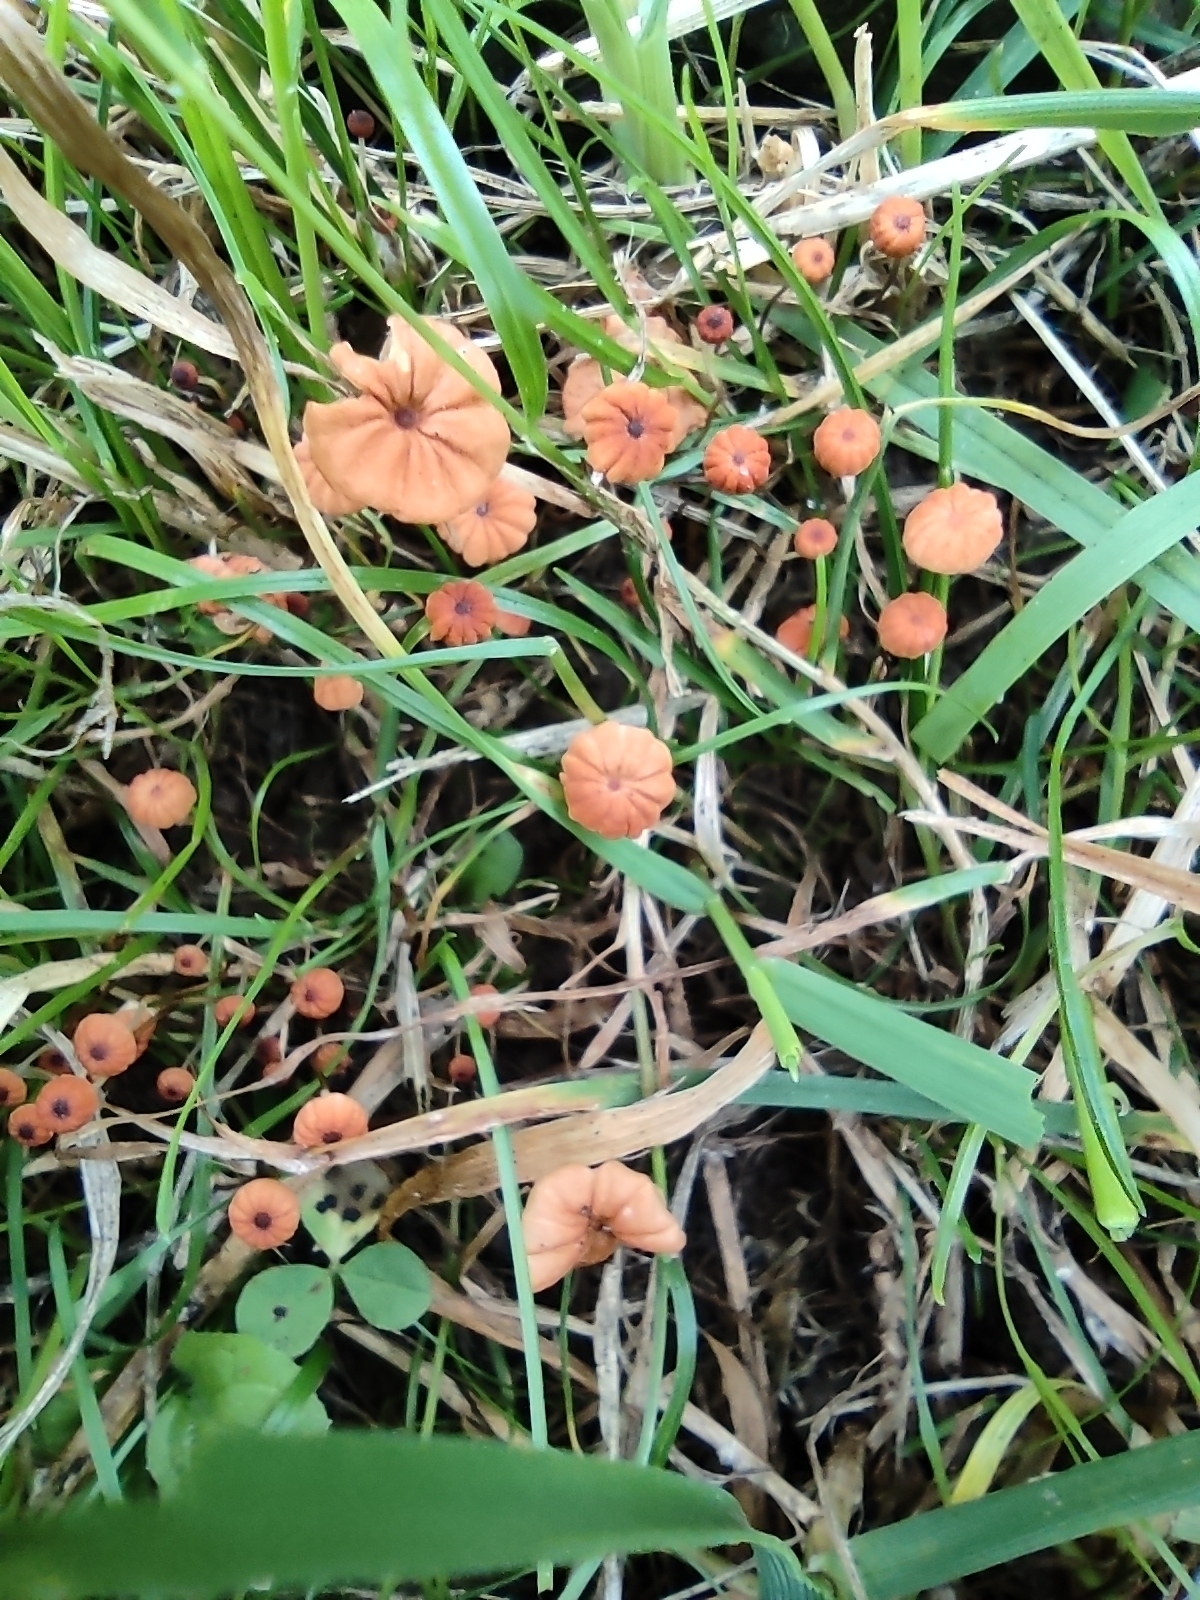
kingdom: Fungi
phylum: Basidiomycota
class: Agaricomycetes
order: Agaricales
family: Marasmiaceae
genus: Marasmius
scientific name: Marasmius siccus
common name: Orange pinwheel
